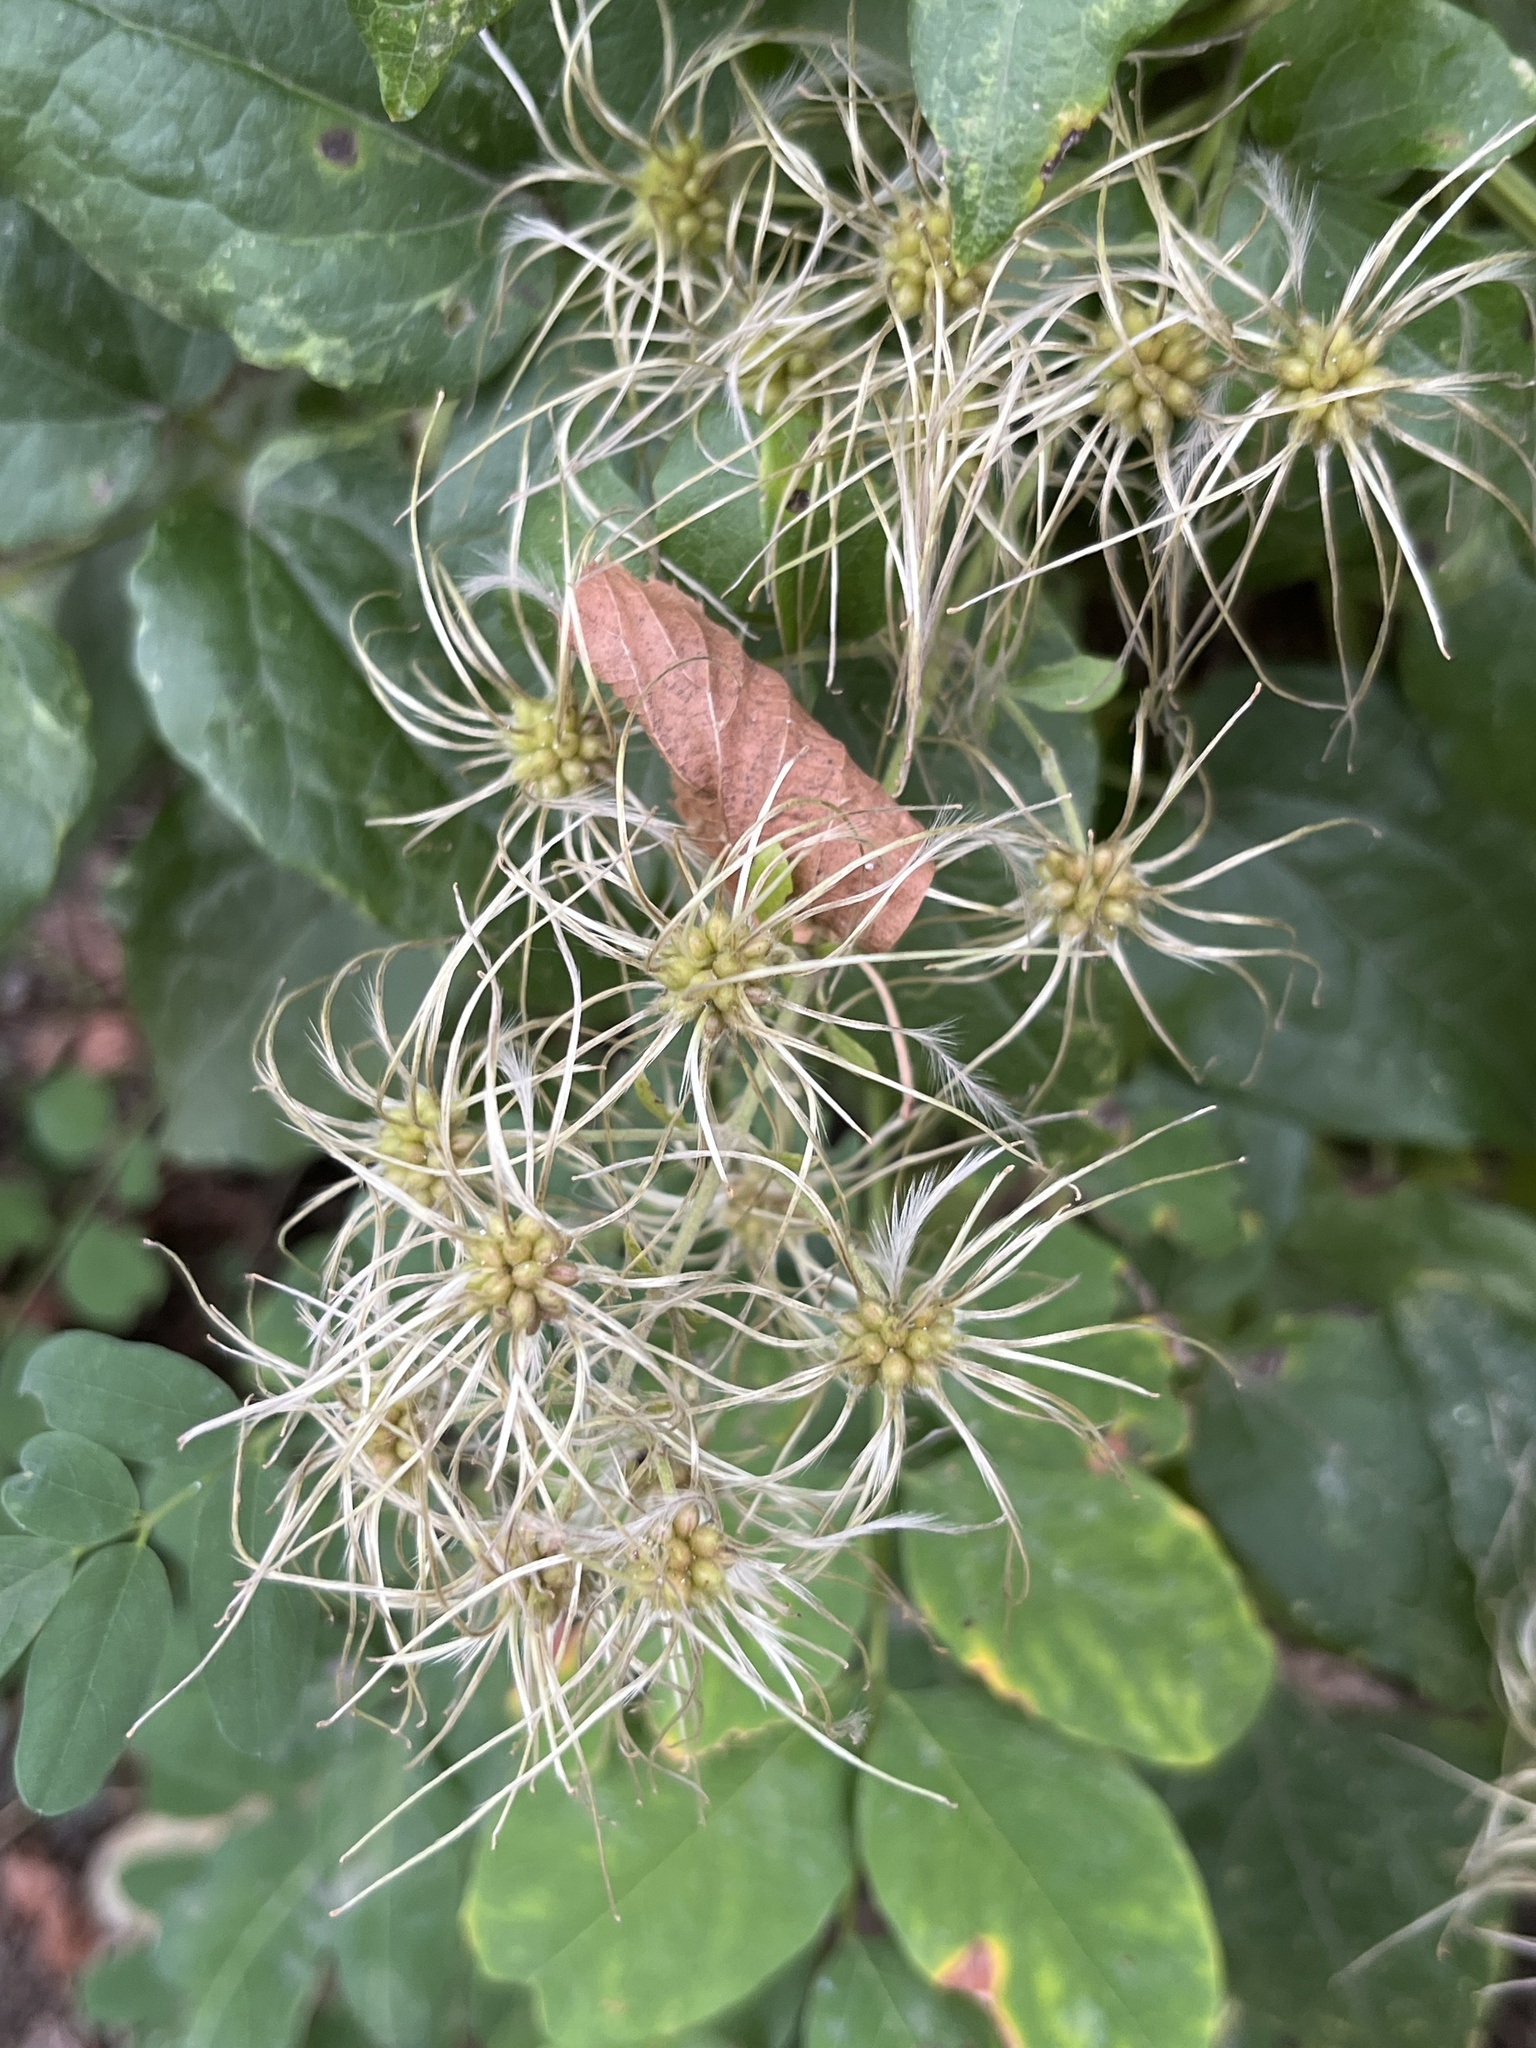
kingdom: Plantae
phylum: Tracheophyta
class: Magnoliopsida
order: Ranunculales
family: Ranunculaceae
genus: Clematis
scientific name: Clematis vitalba
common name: Evergreen clematis
